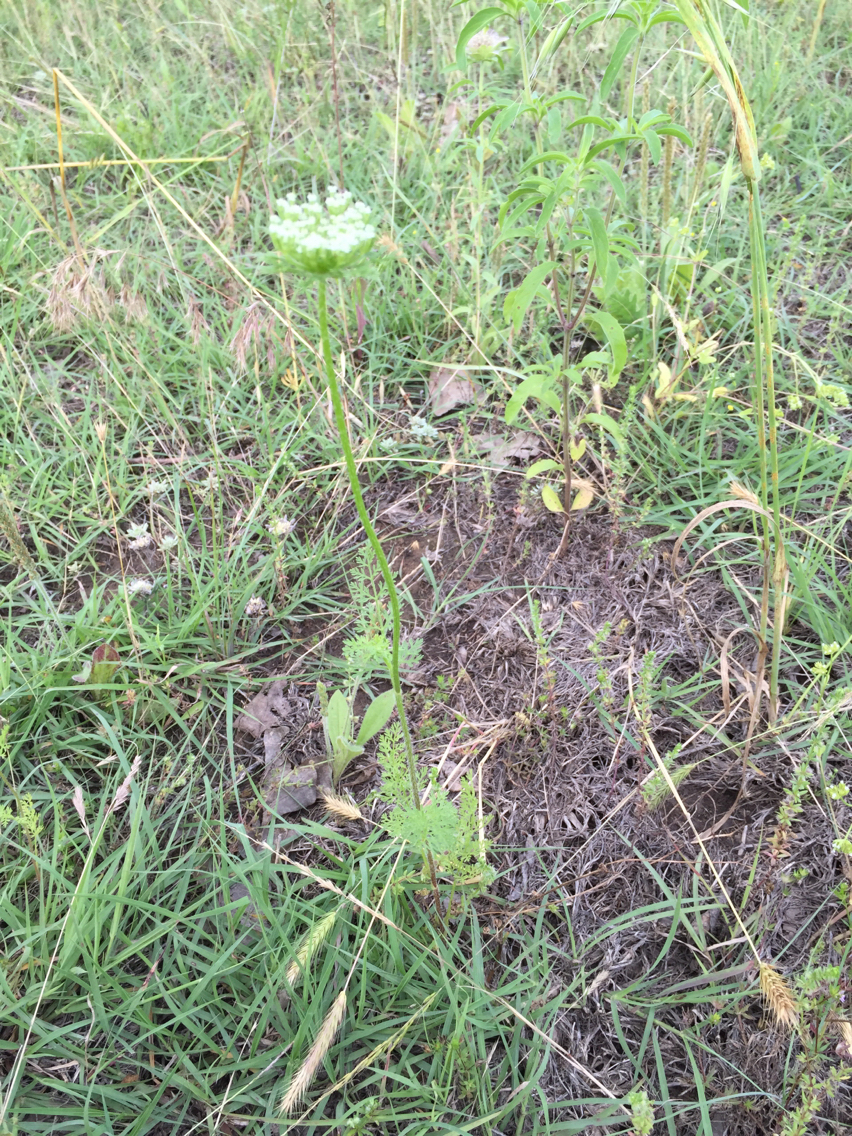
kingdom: Plantae
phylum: Tracheophyta
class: Magnoliopsida
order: Apiales
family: Apiaceae
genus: Daucus
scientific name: Daucus pusillus
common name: Southwest wild carrot
